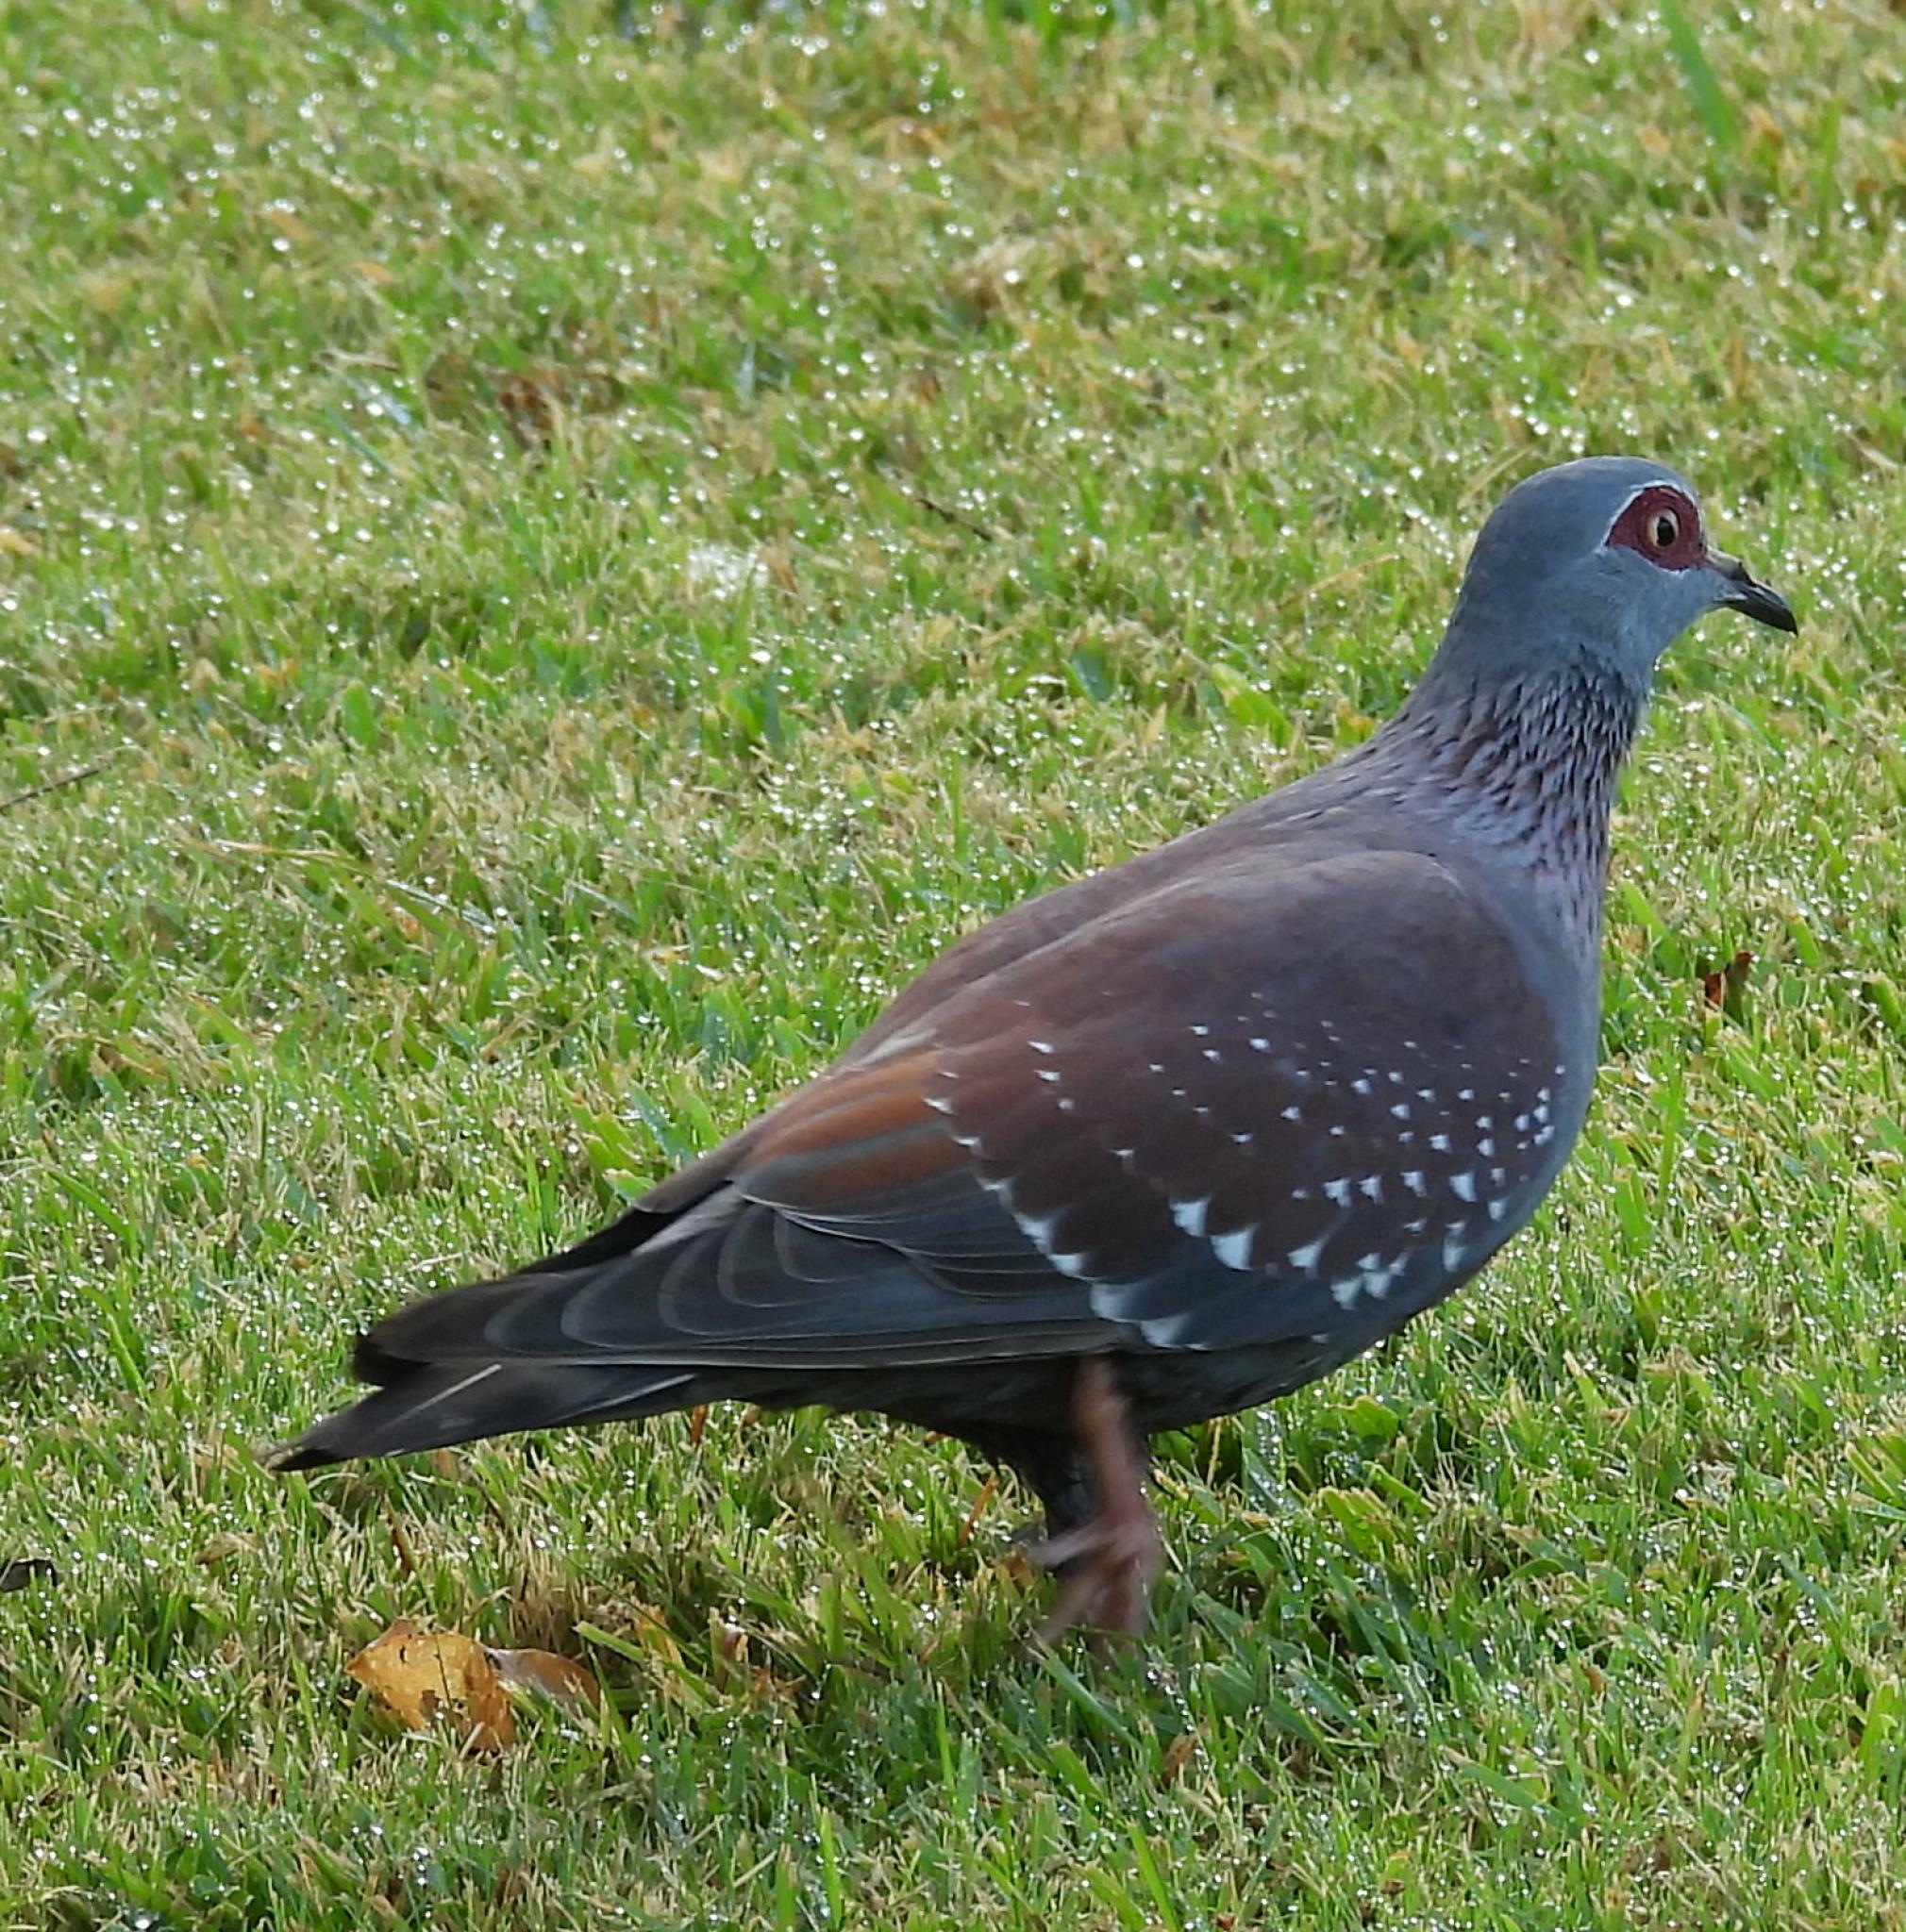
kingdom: Animalia
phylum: Chordata
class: Aves
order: Columbiformes
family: Columbidae
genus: Columba
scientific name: Columba guinea
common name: Speckled pigeon
